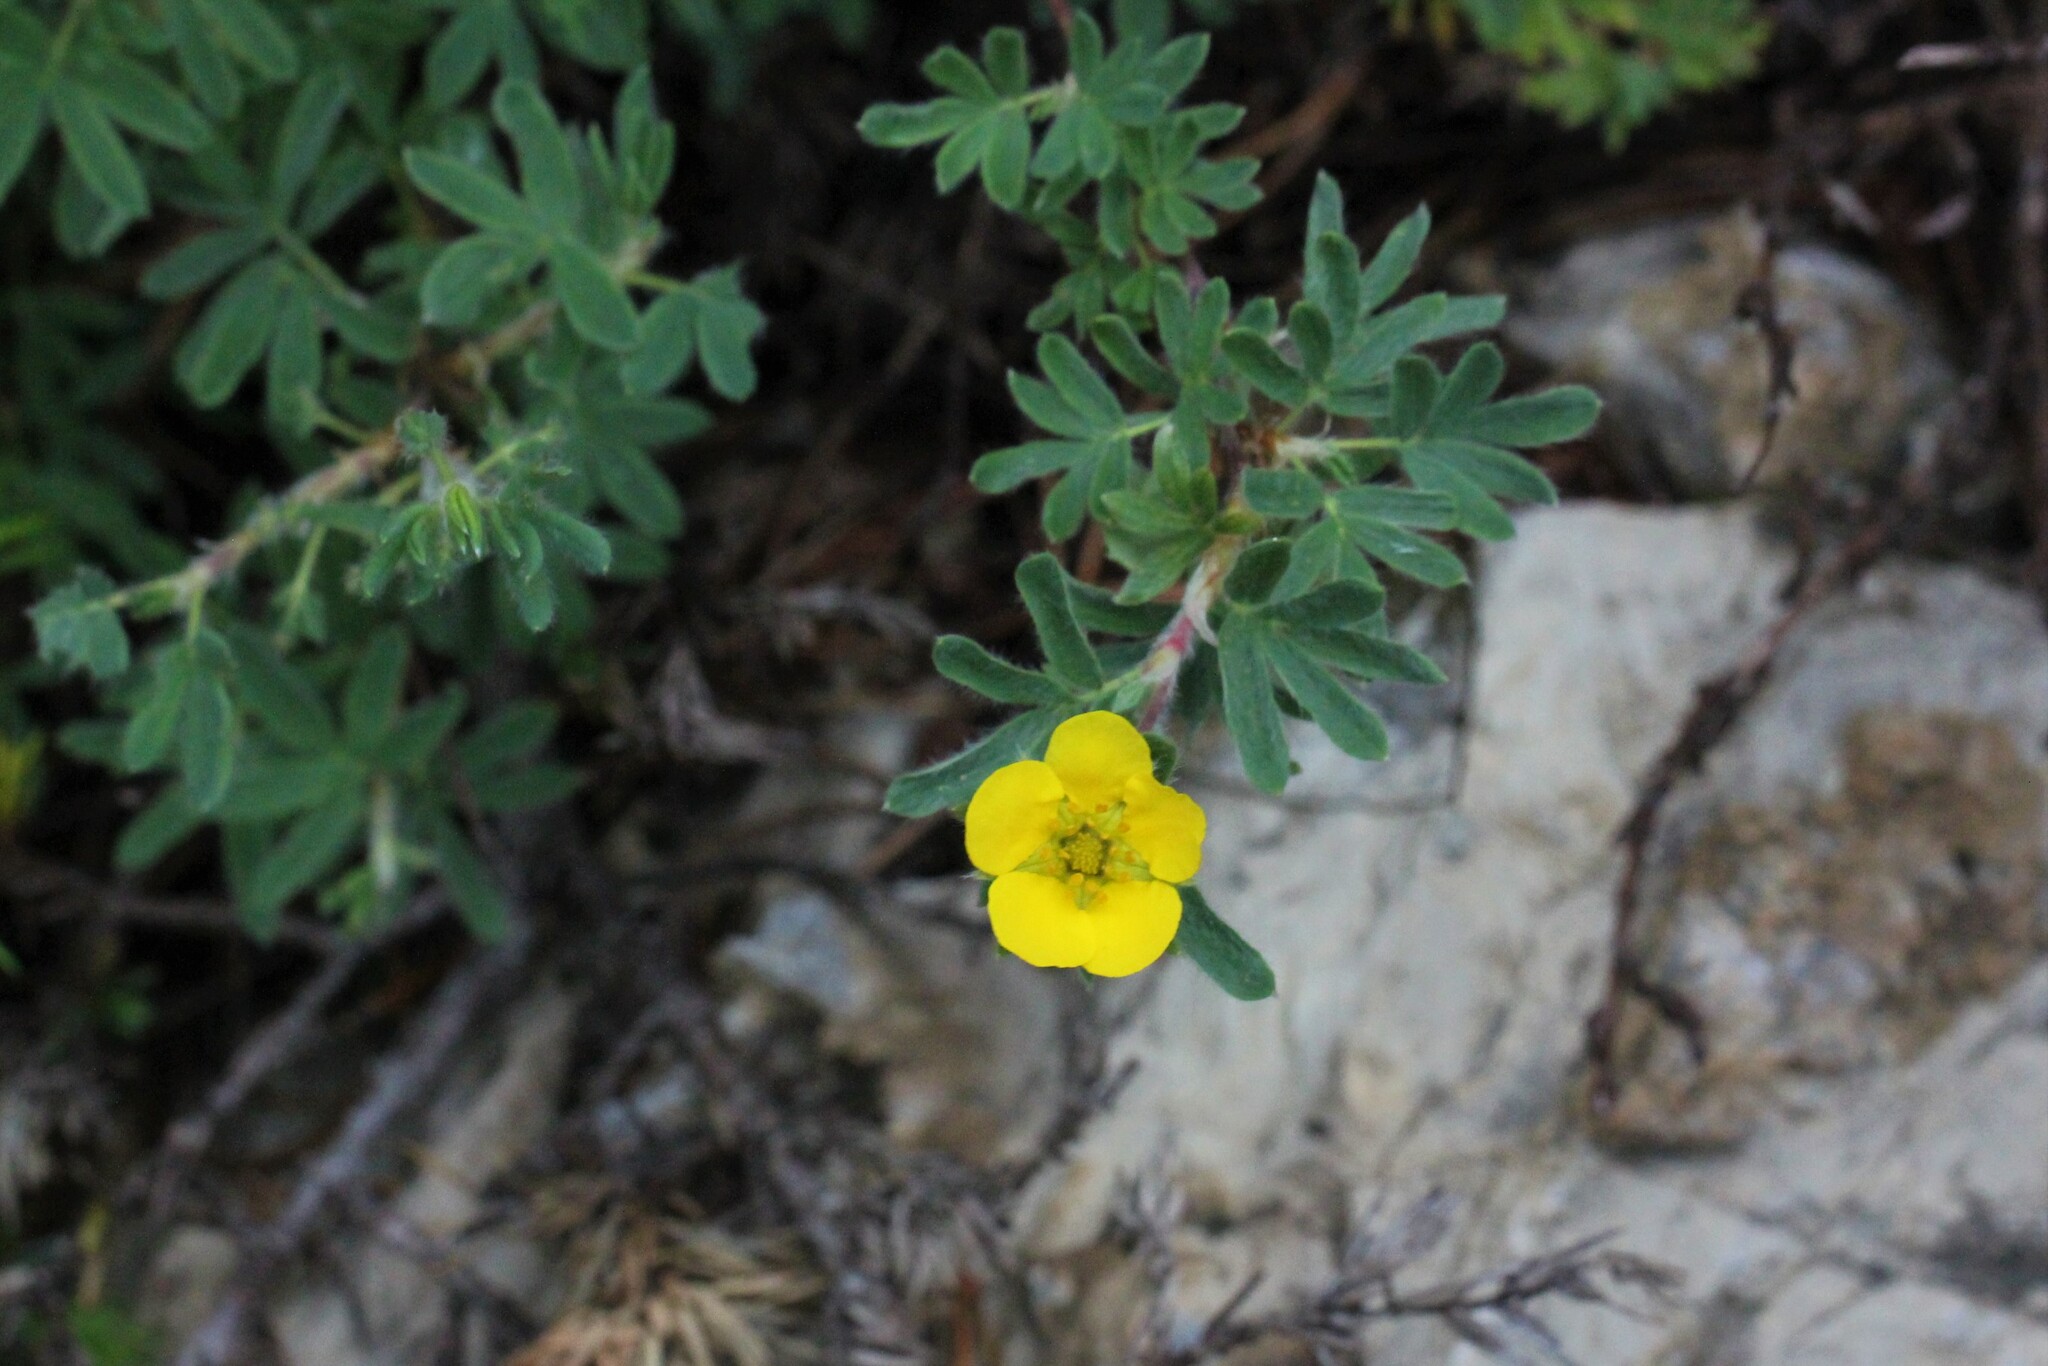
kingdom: Plantae
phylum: Tracheophyta
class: Magnoliopsida
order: Rosales
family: Rosaceae
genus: Dasiphora
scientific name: Dasiphora fruticosa
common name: Shrubby cinquefoil
